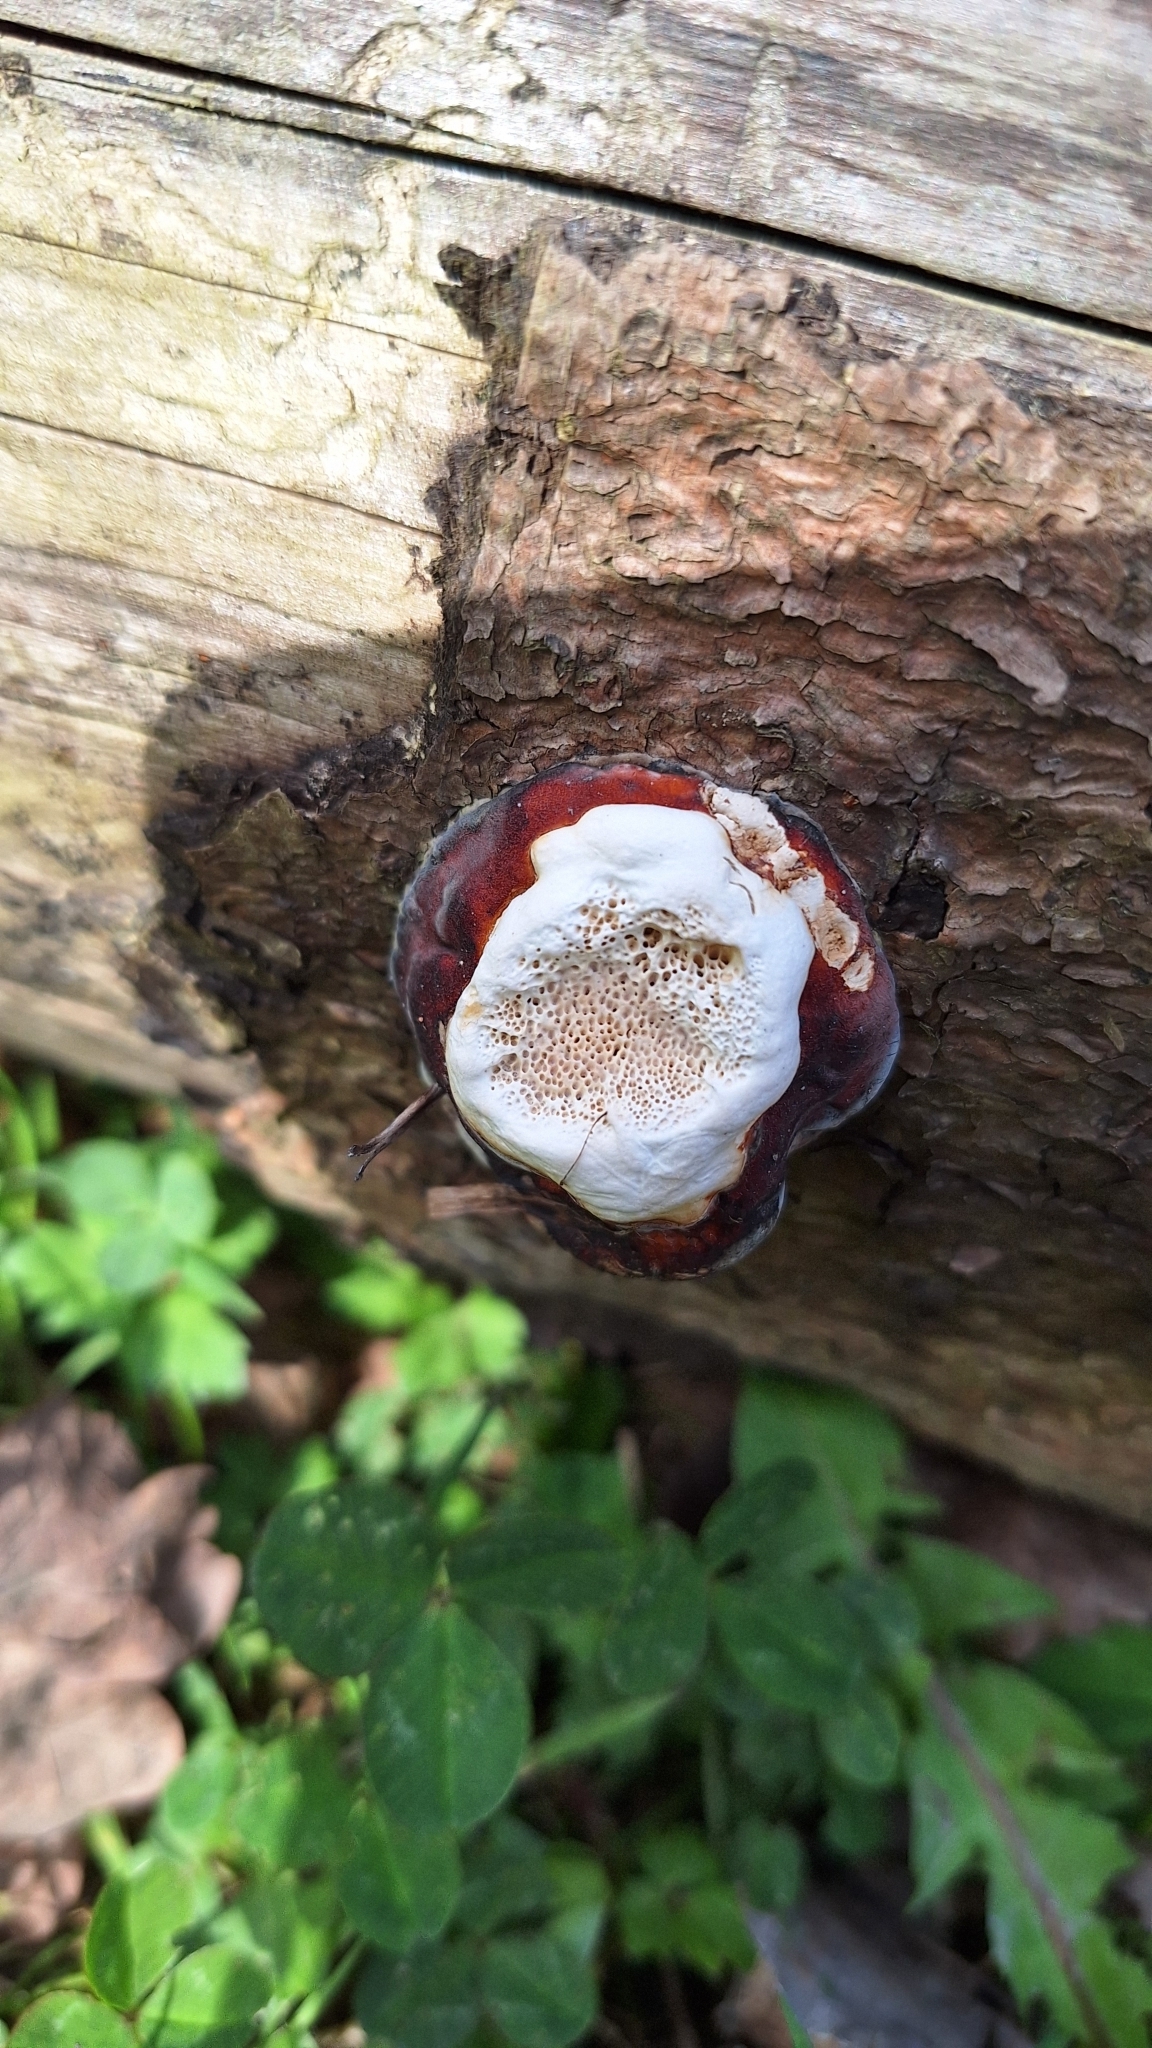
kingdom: Fungi
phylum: Basidiomycota
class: Agaricomycetes
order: Polyporales
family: Fomitopsidaceae
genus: Fomitopsis
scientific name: Fomitopsis pinicola
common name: Red-belted bracket
